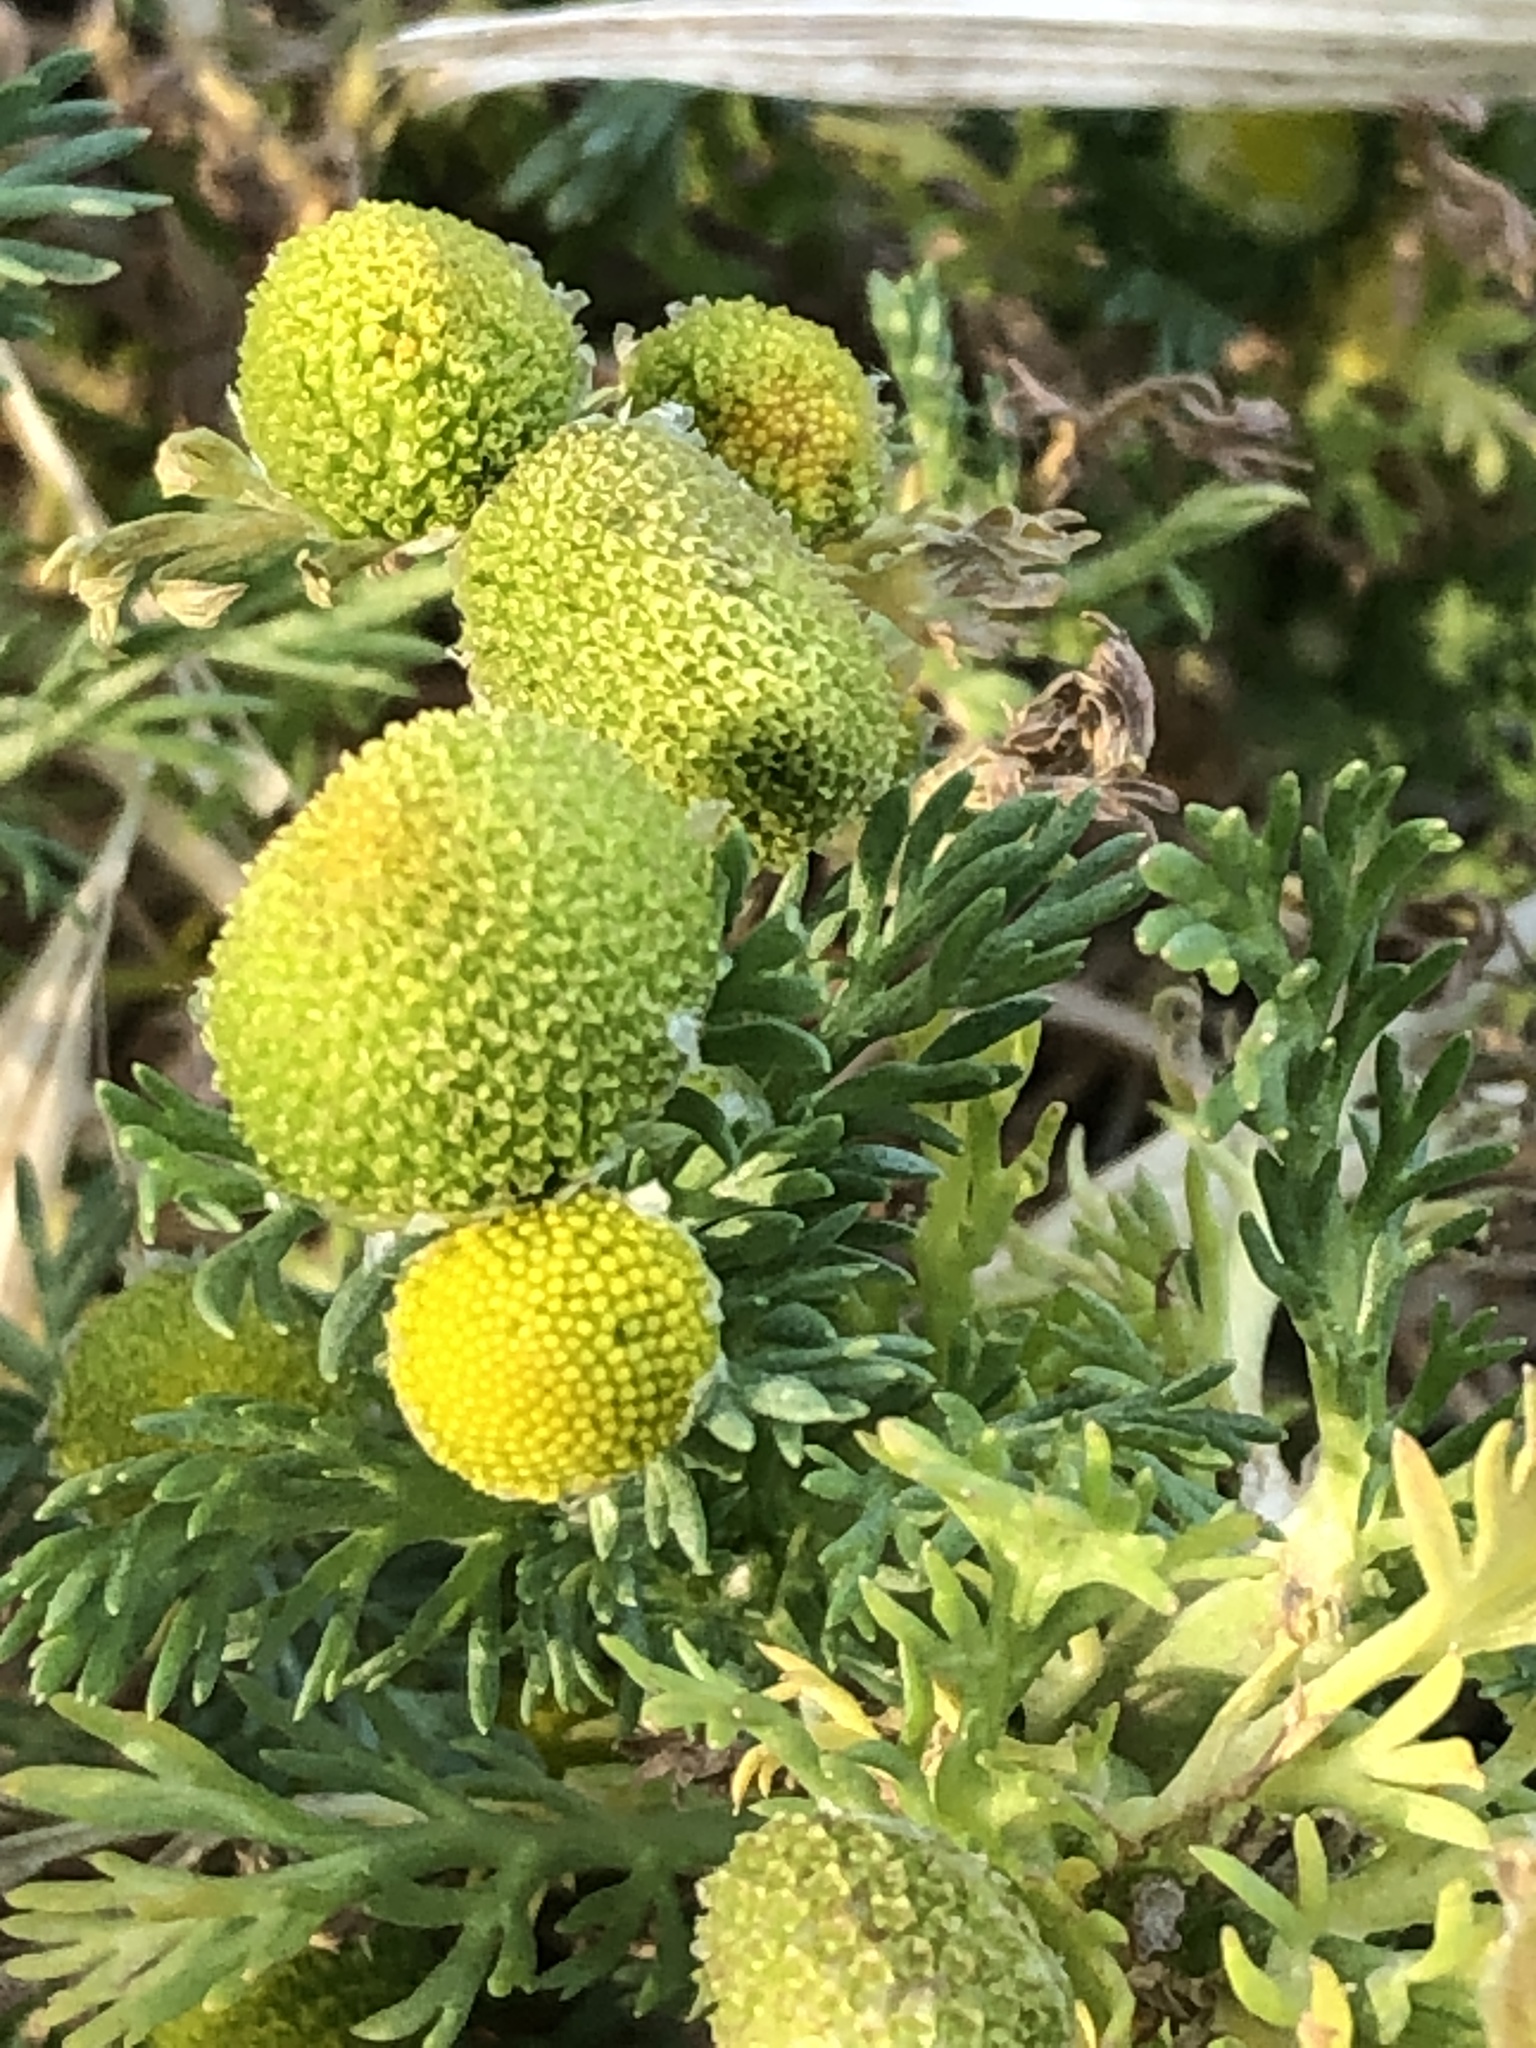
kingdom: Plantae
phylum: Tracheophyta
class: Magnoliopsida
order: Asterales
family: Asteraceae
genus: Matricaria
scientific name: Matricaria discoidea
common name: Disc mayweed
